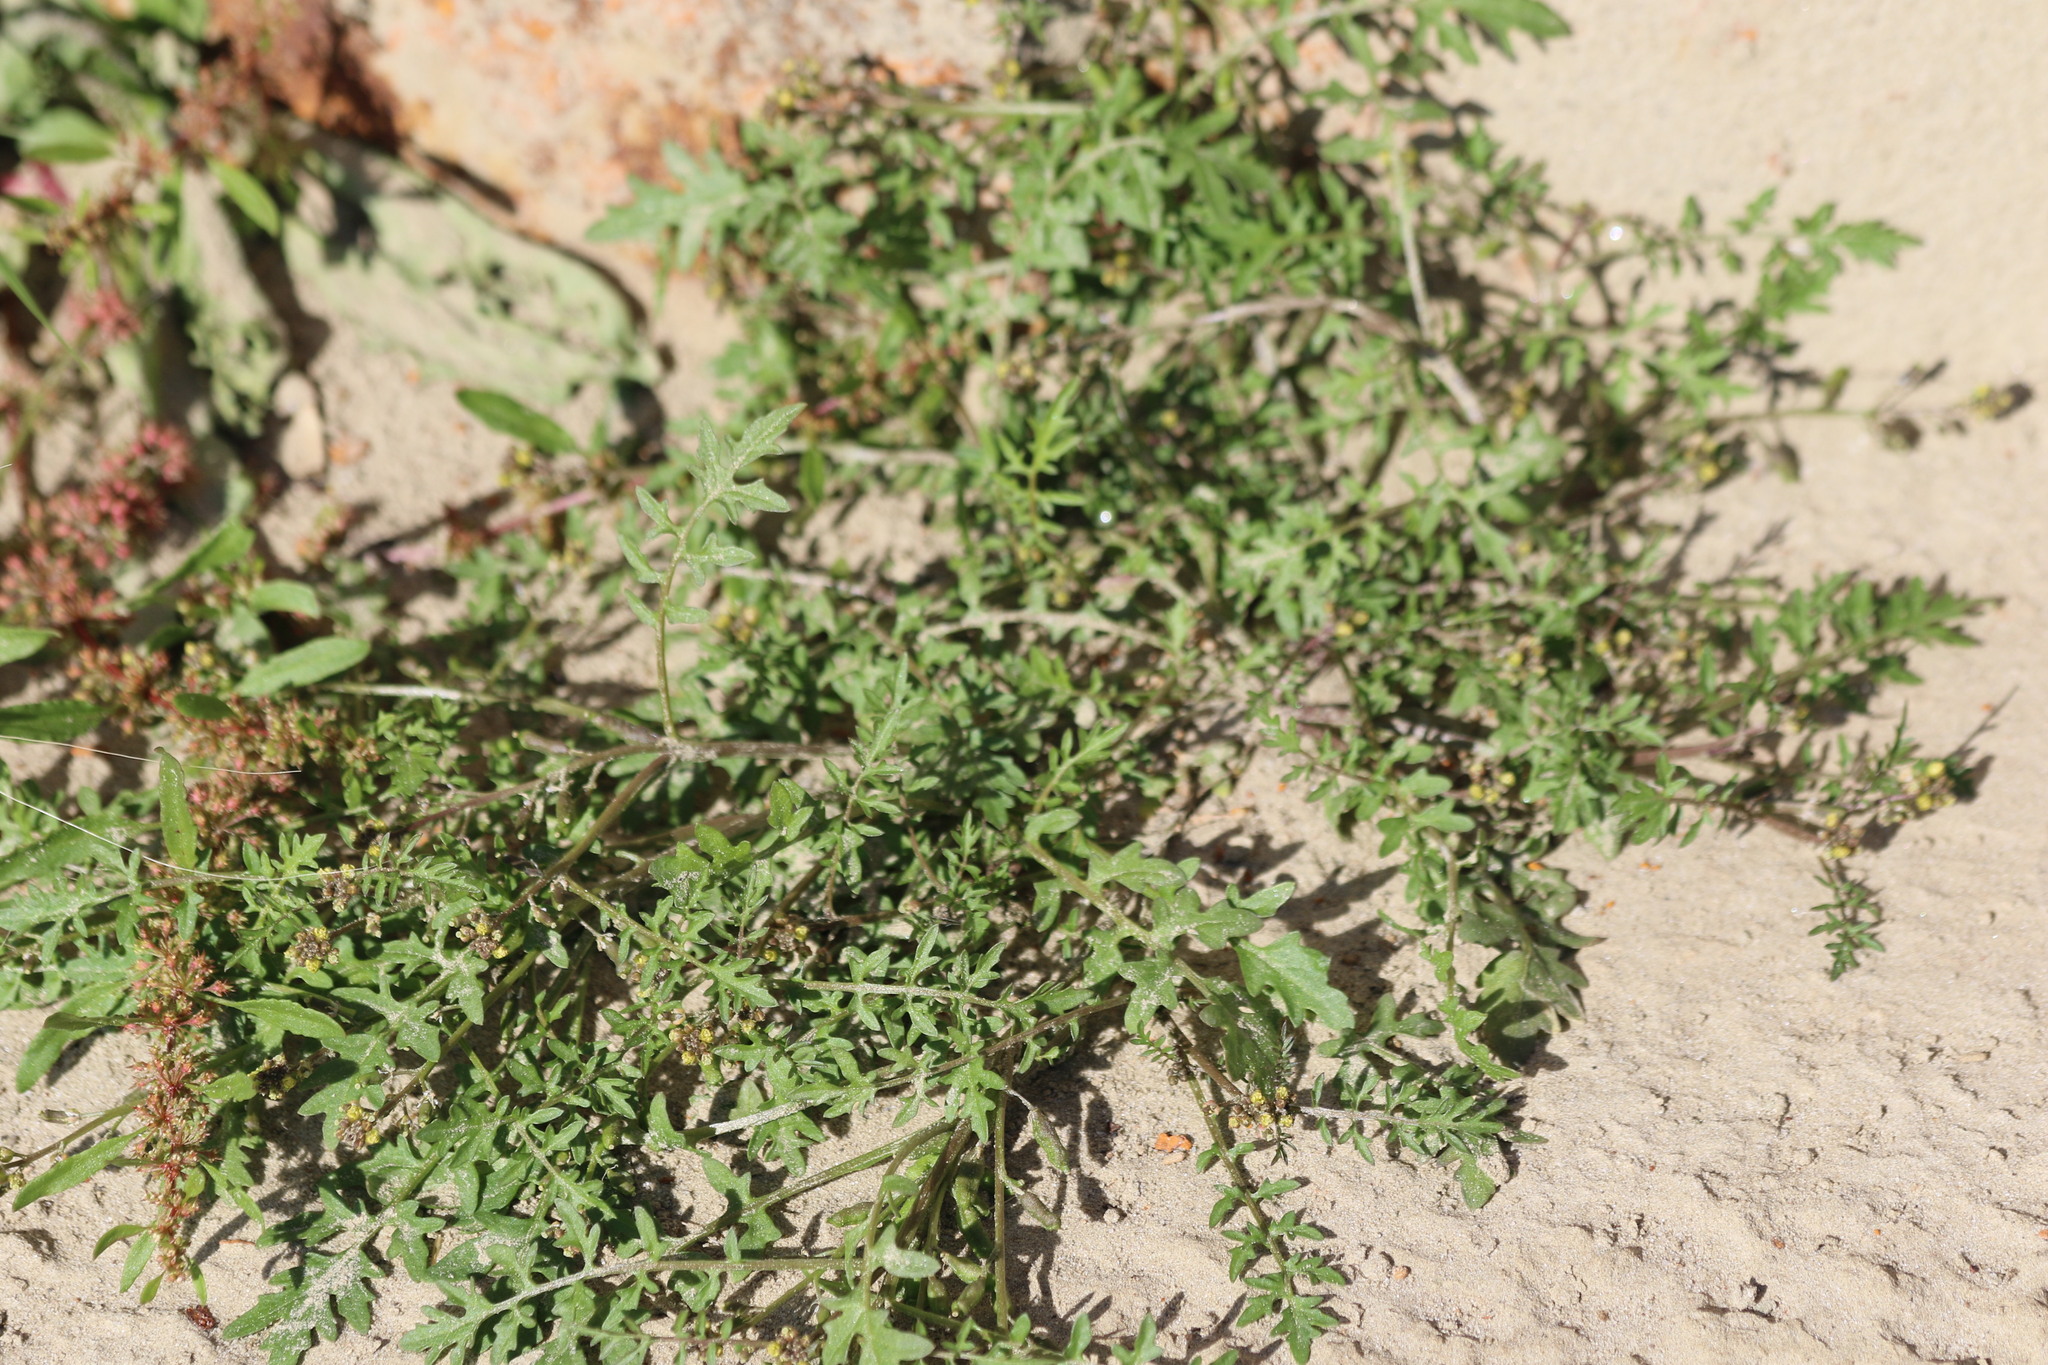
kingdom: Plantae
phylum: Tracheophyta
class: Magnoliopsida
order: Brassicales
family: Brassicaceae
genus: Rorippa
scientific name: Rorippa islandica
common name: Marsh cress
